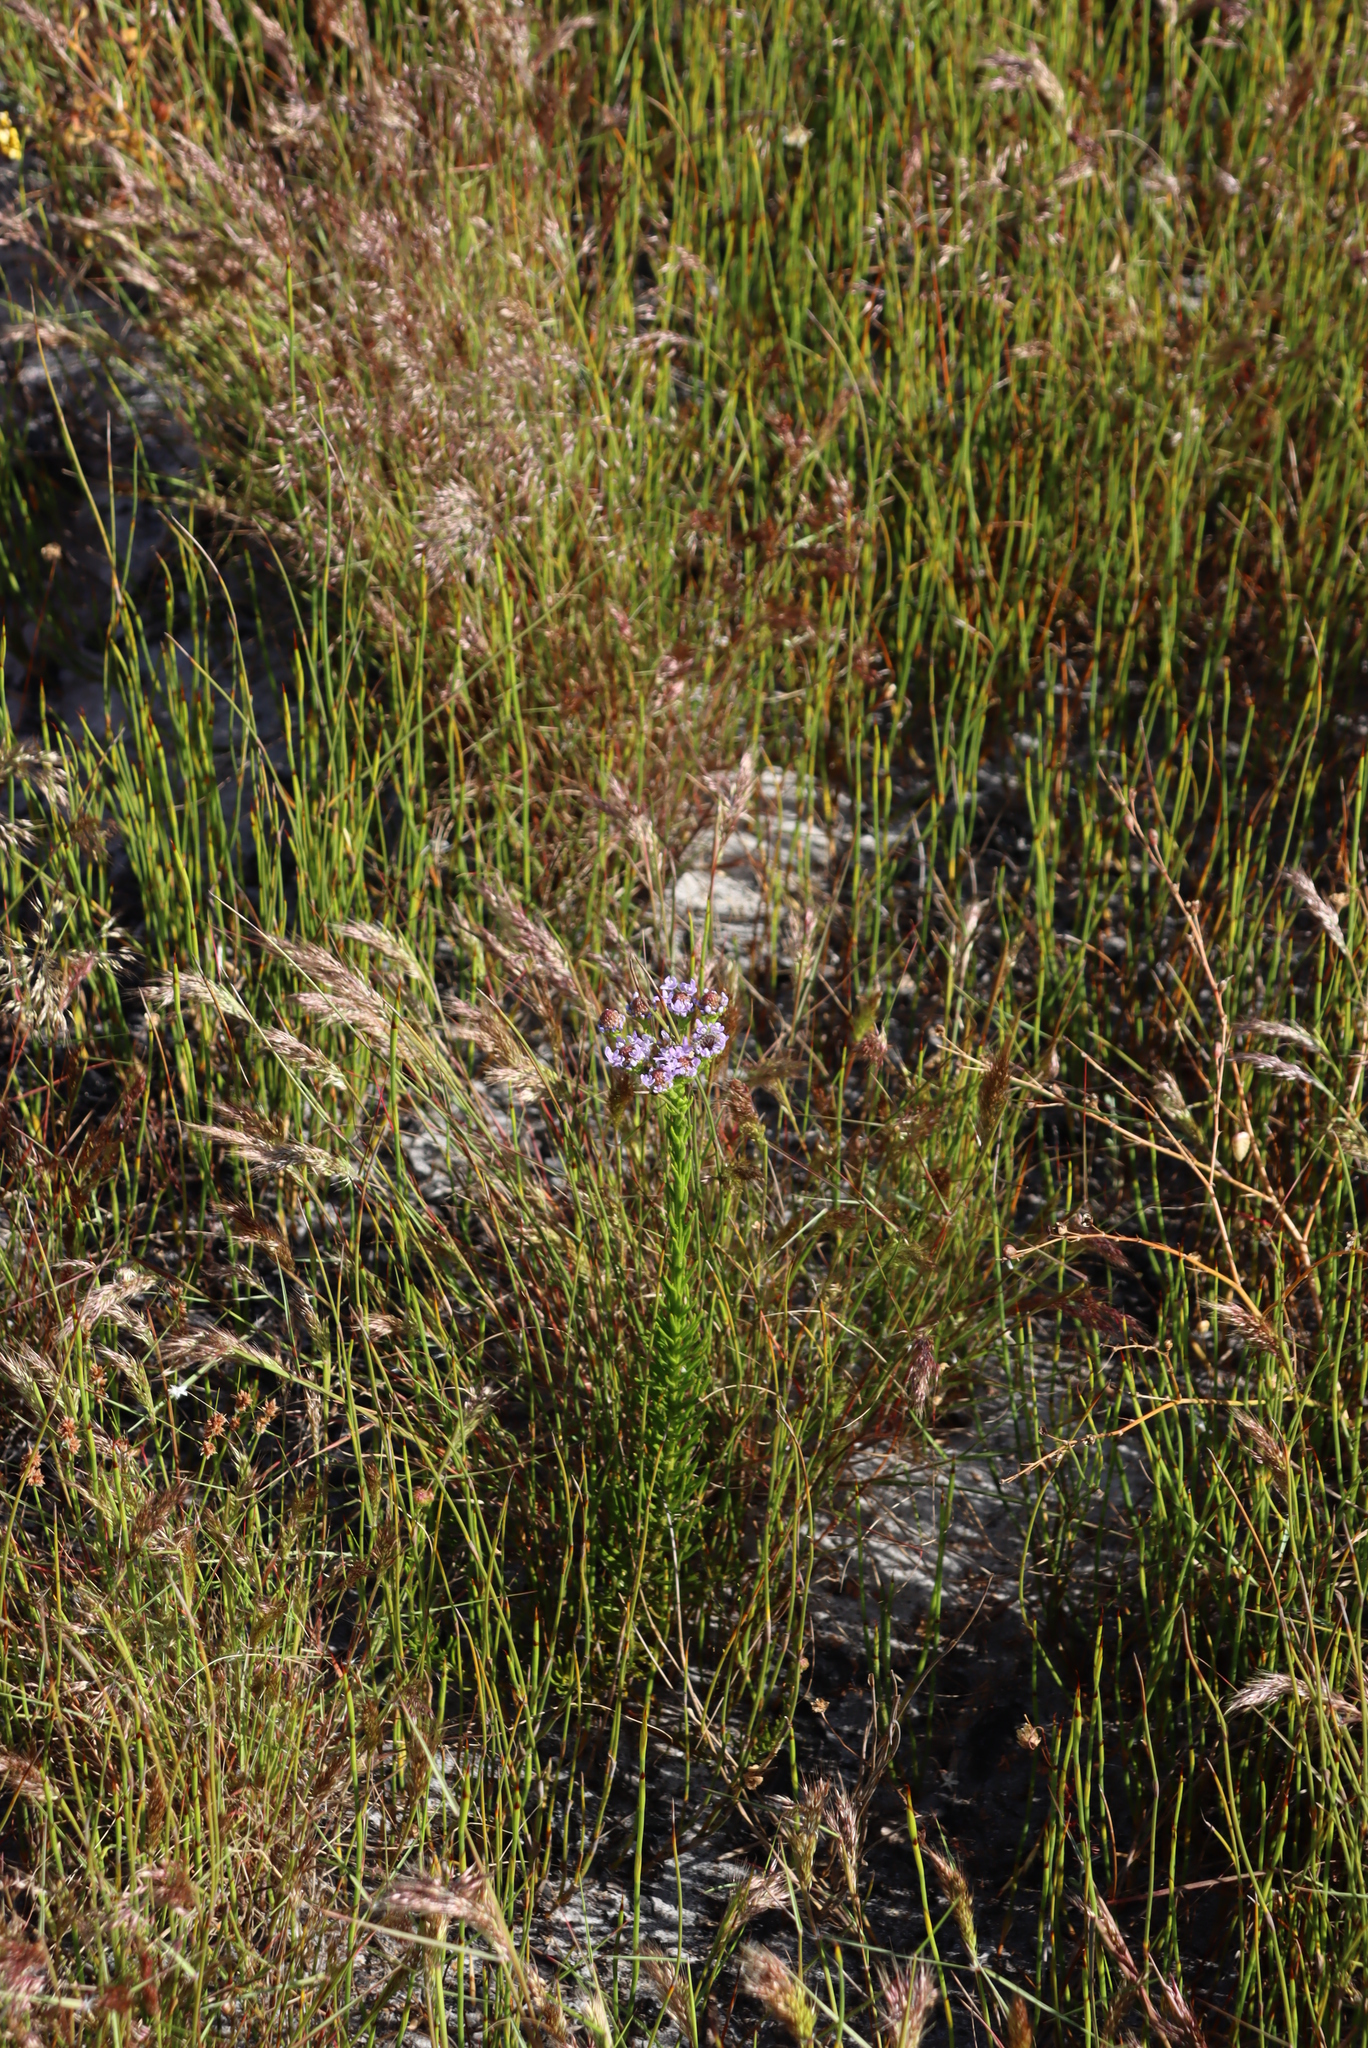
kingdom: Plantae
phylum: Tracheophyta
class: Magnoliopsida
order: Lamiales
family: Scrophulariaceae
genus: Pseudoselago
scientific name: Pseudoselago spuria
